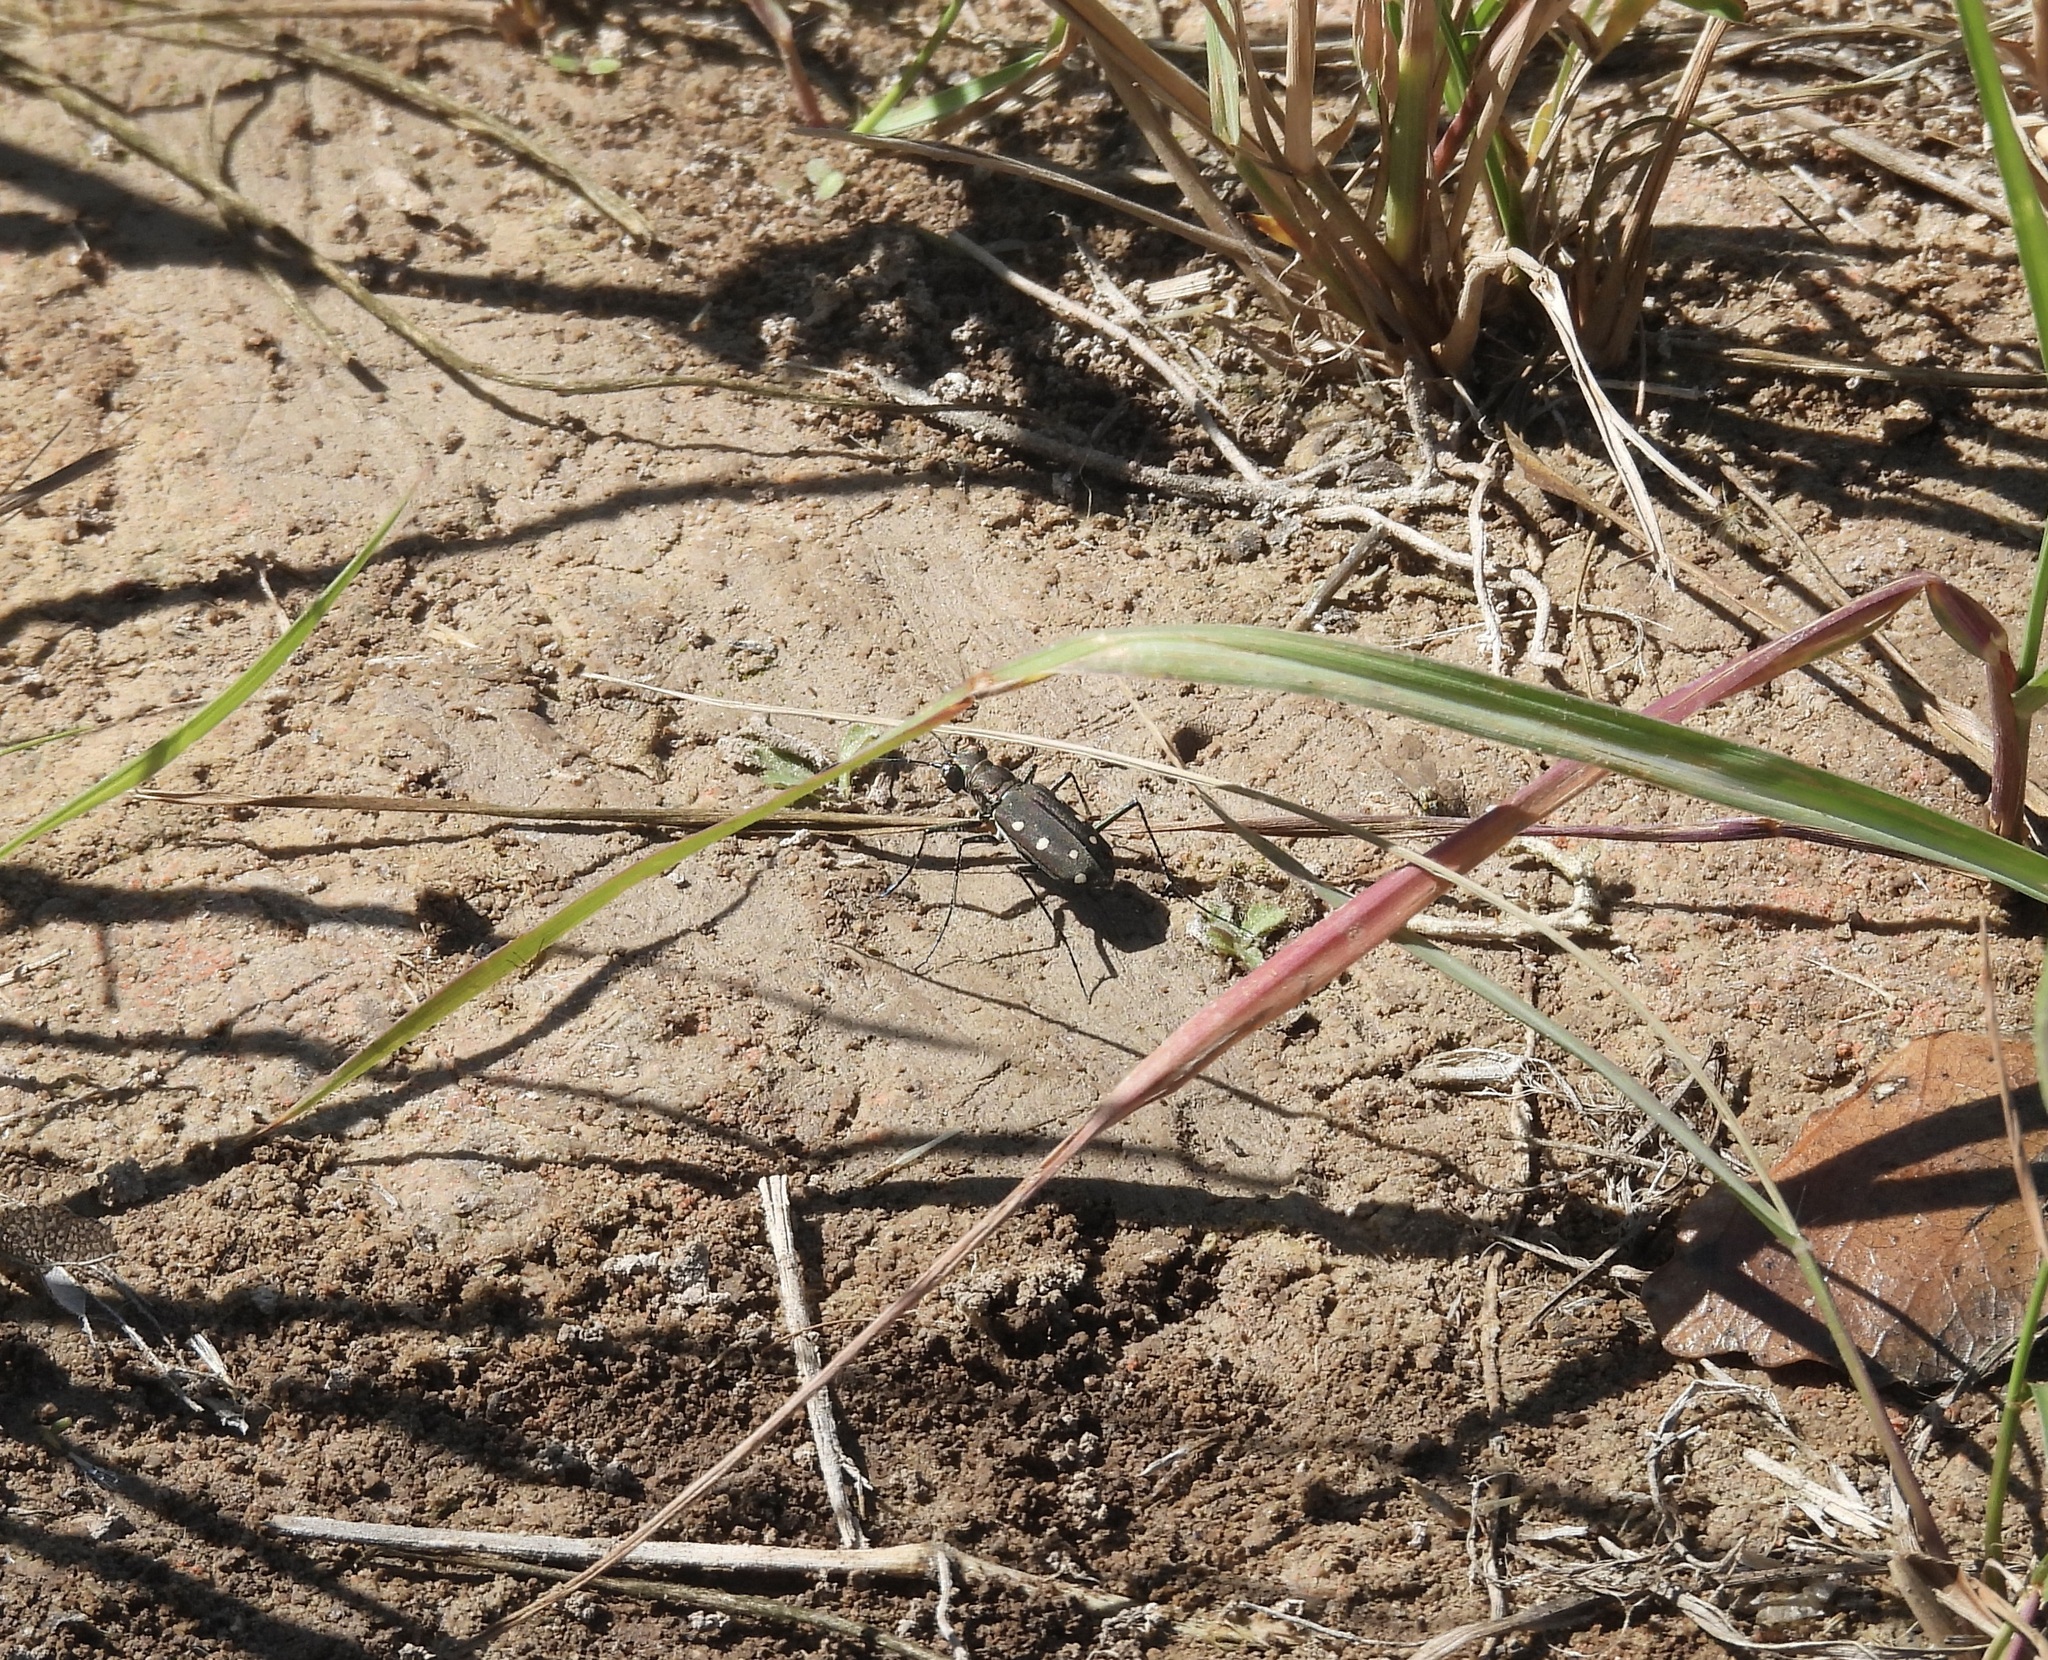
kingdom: Animalia
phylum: Arthropoda
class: Insecta
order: Coleoptera
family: Carabidae
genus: Cicindela
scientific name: Cicindela ocellata
